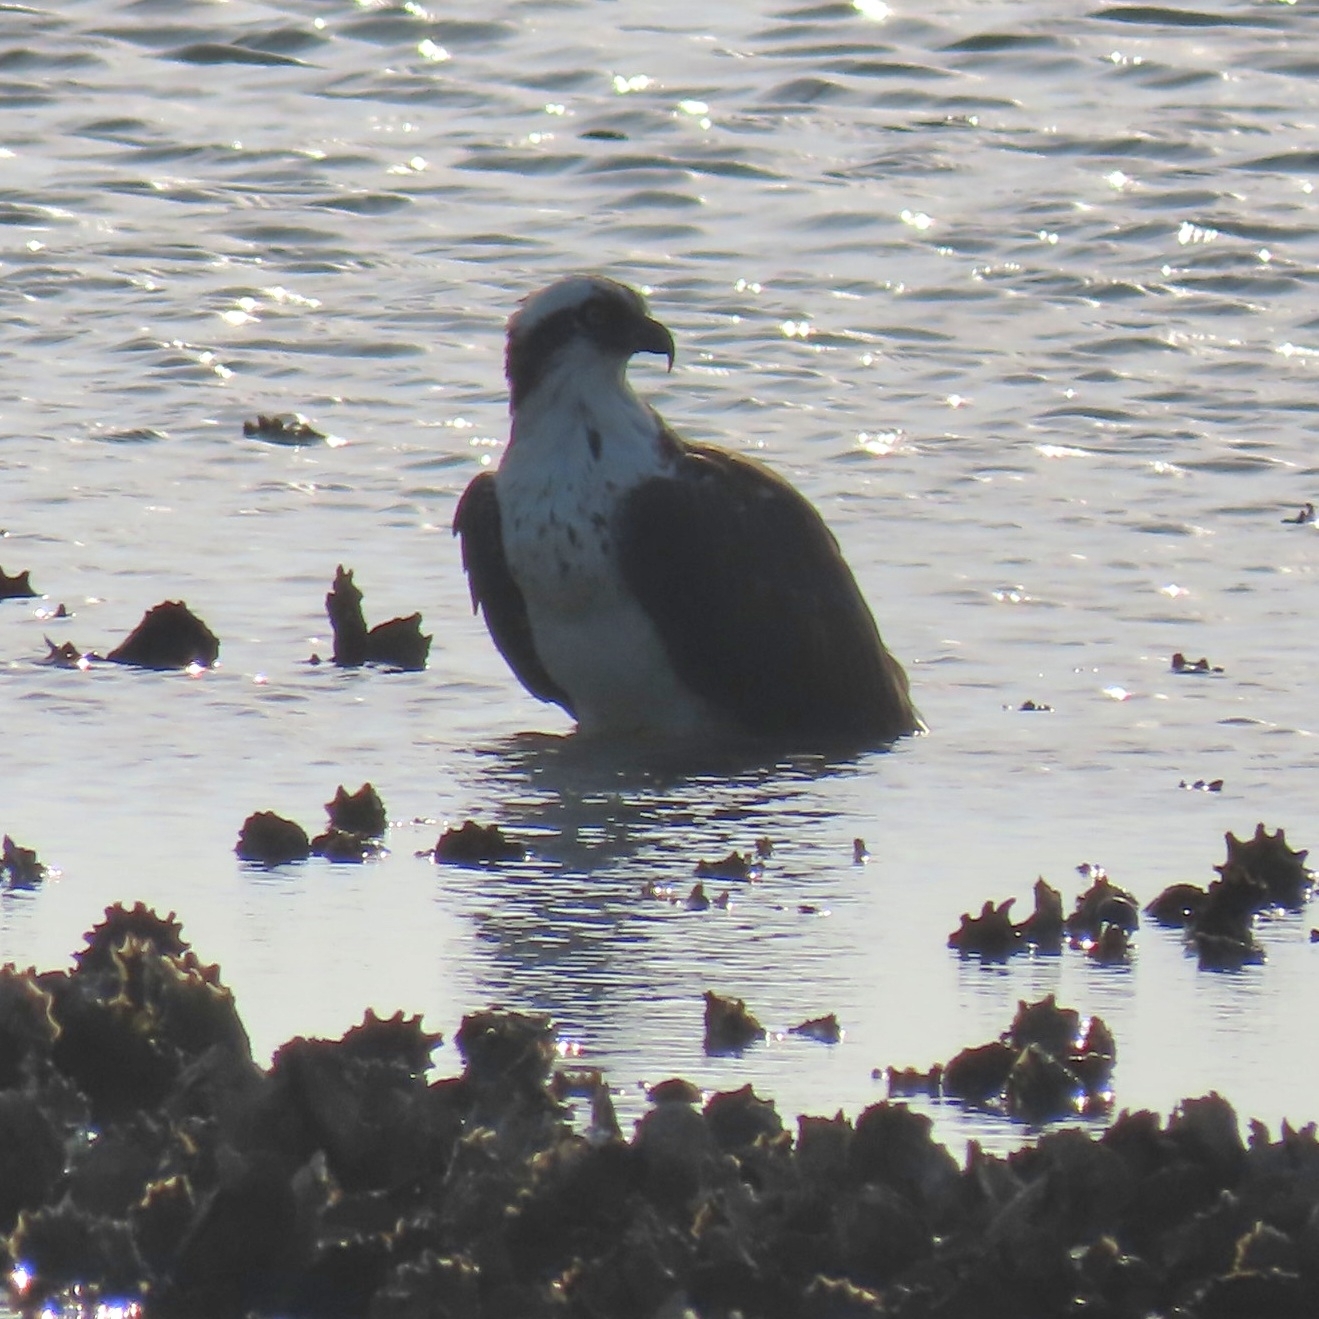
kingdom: Animalia
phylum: Chordata
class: Aves
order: Accipitriformes
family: Pandionidae
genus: Pandion
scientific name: Pandion haliaetus
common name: Osprey
